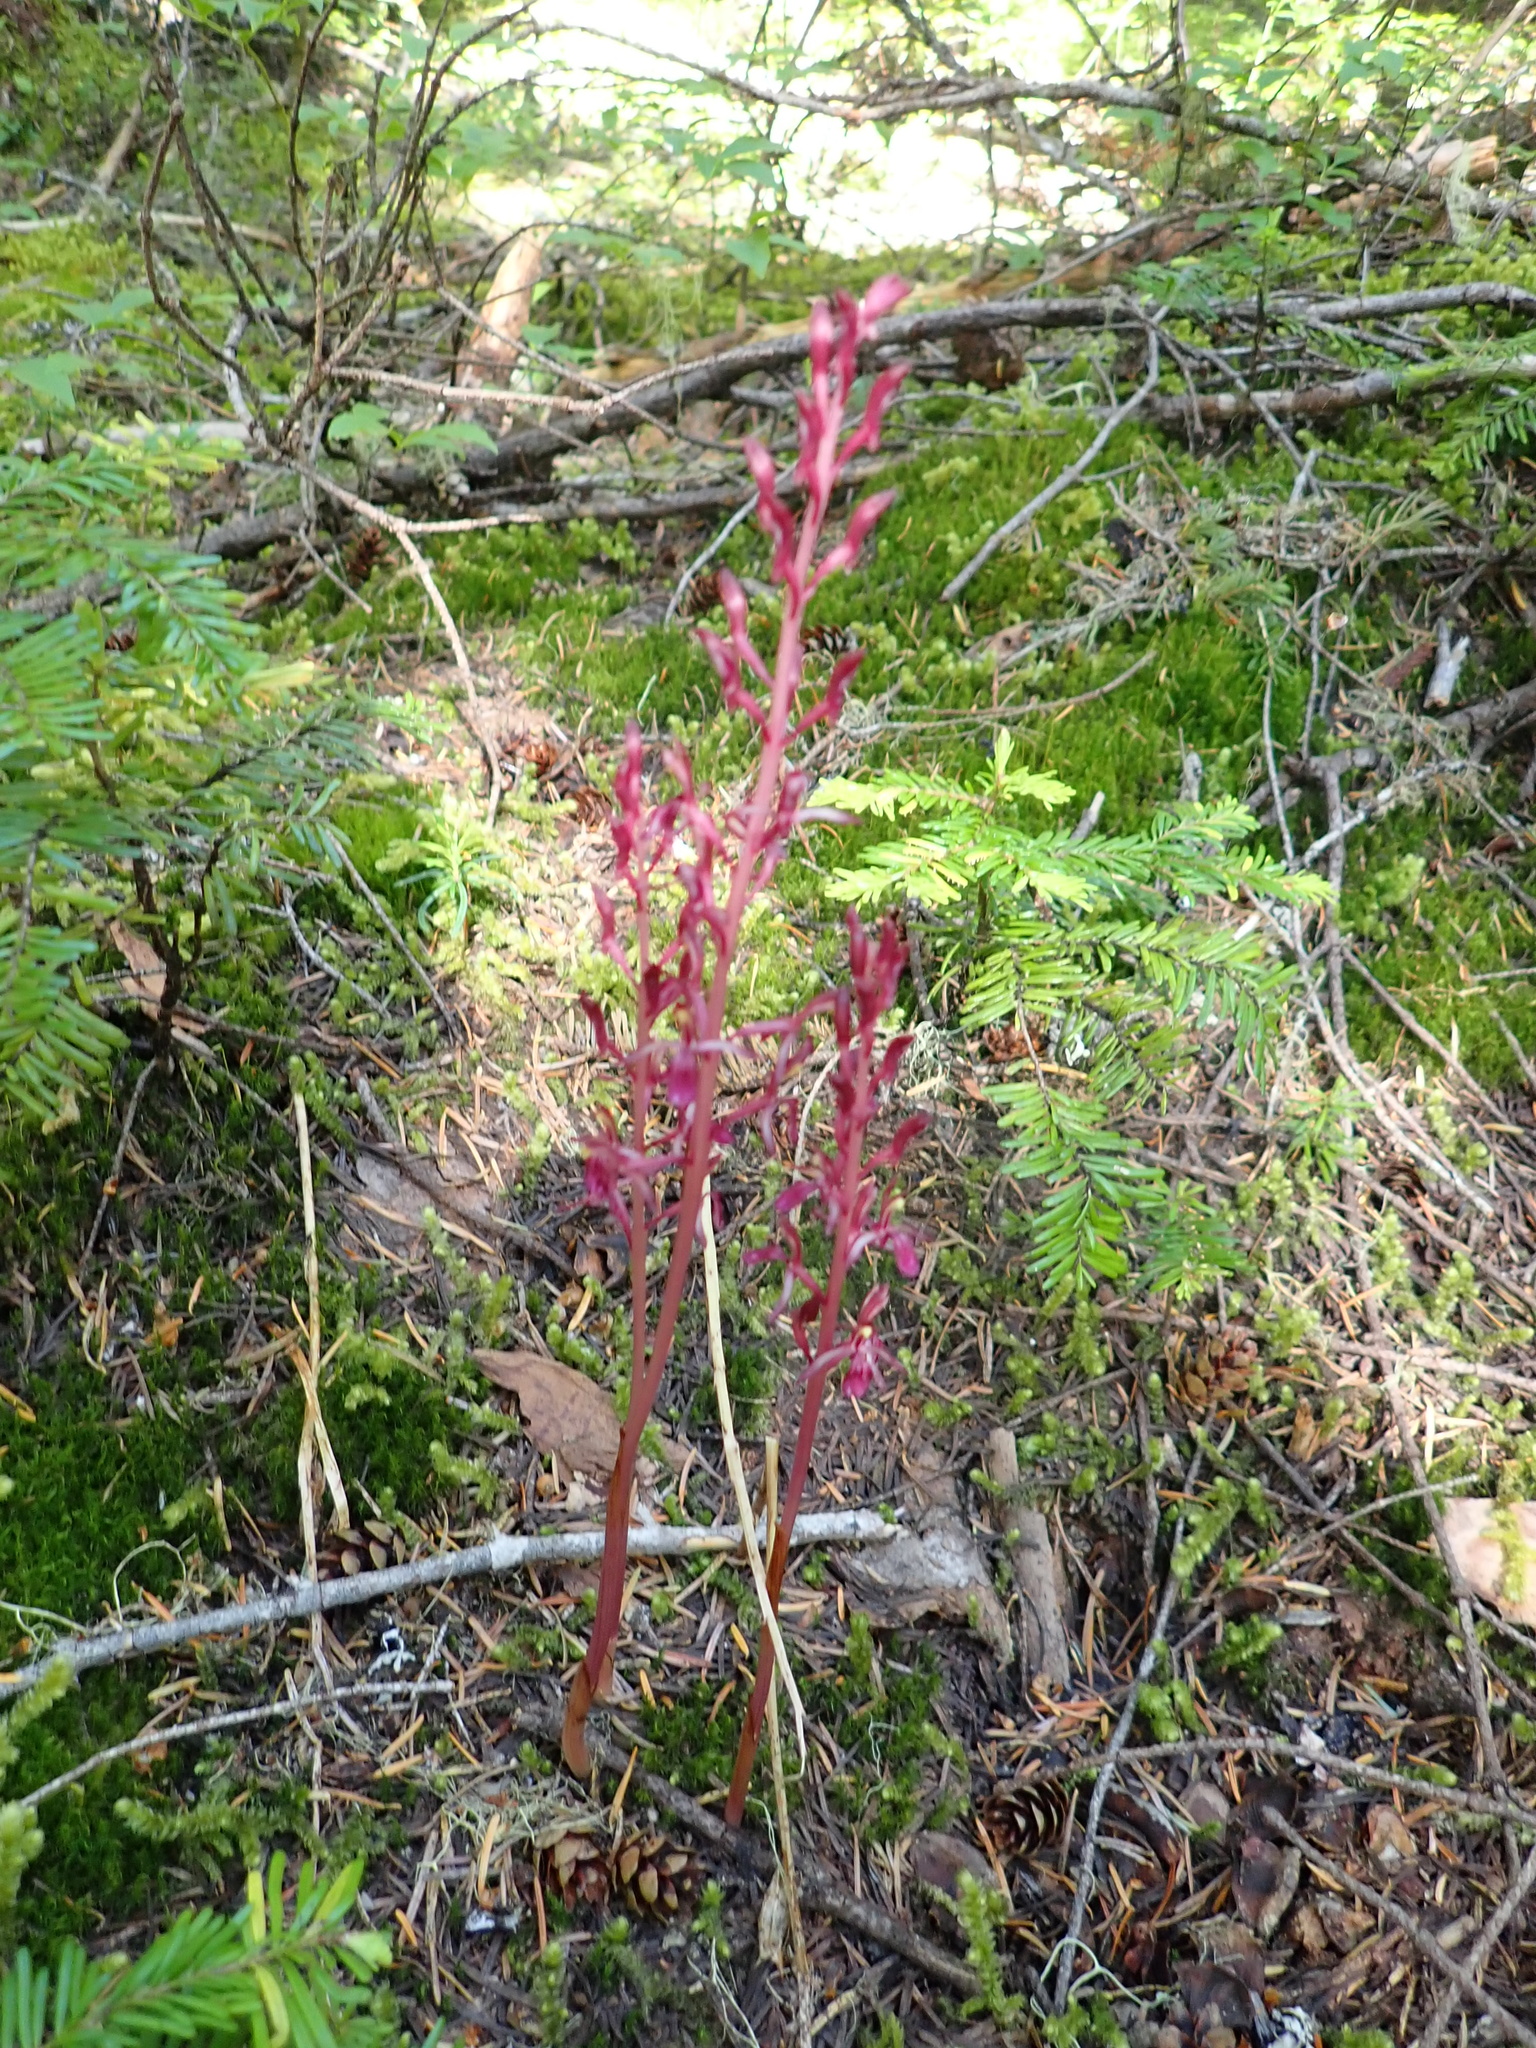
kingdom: Plantae
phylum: Tracheophyta
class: Liliopsida
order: Asparagales
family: Orchidaceae
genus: Corallorhiza
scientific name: Corallorhiza mertensiana
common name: Pacific coralroot
